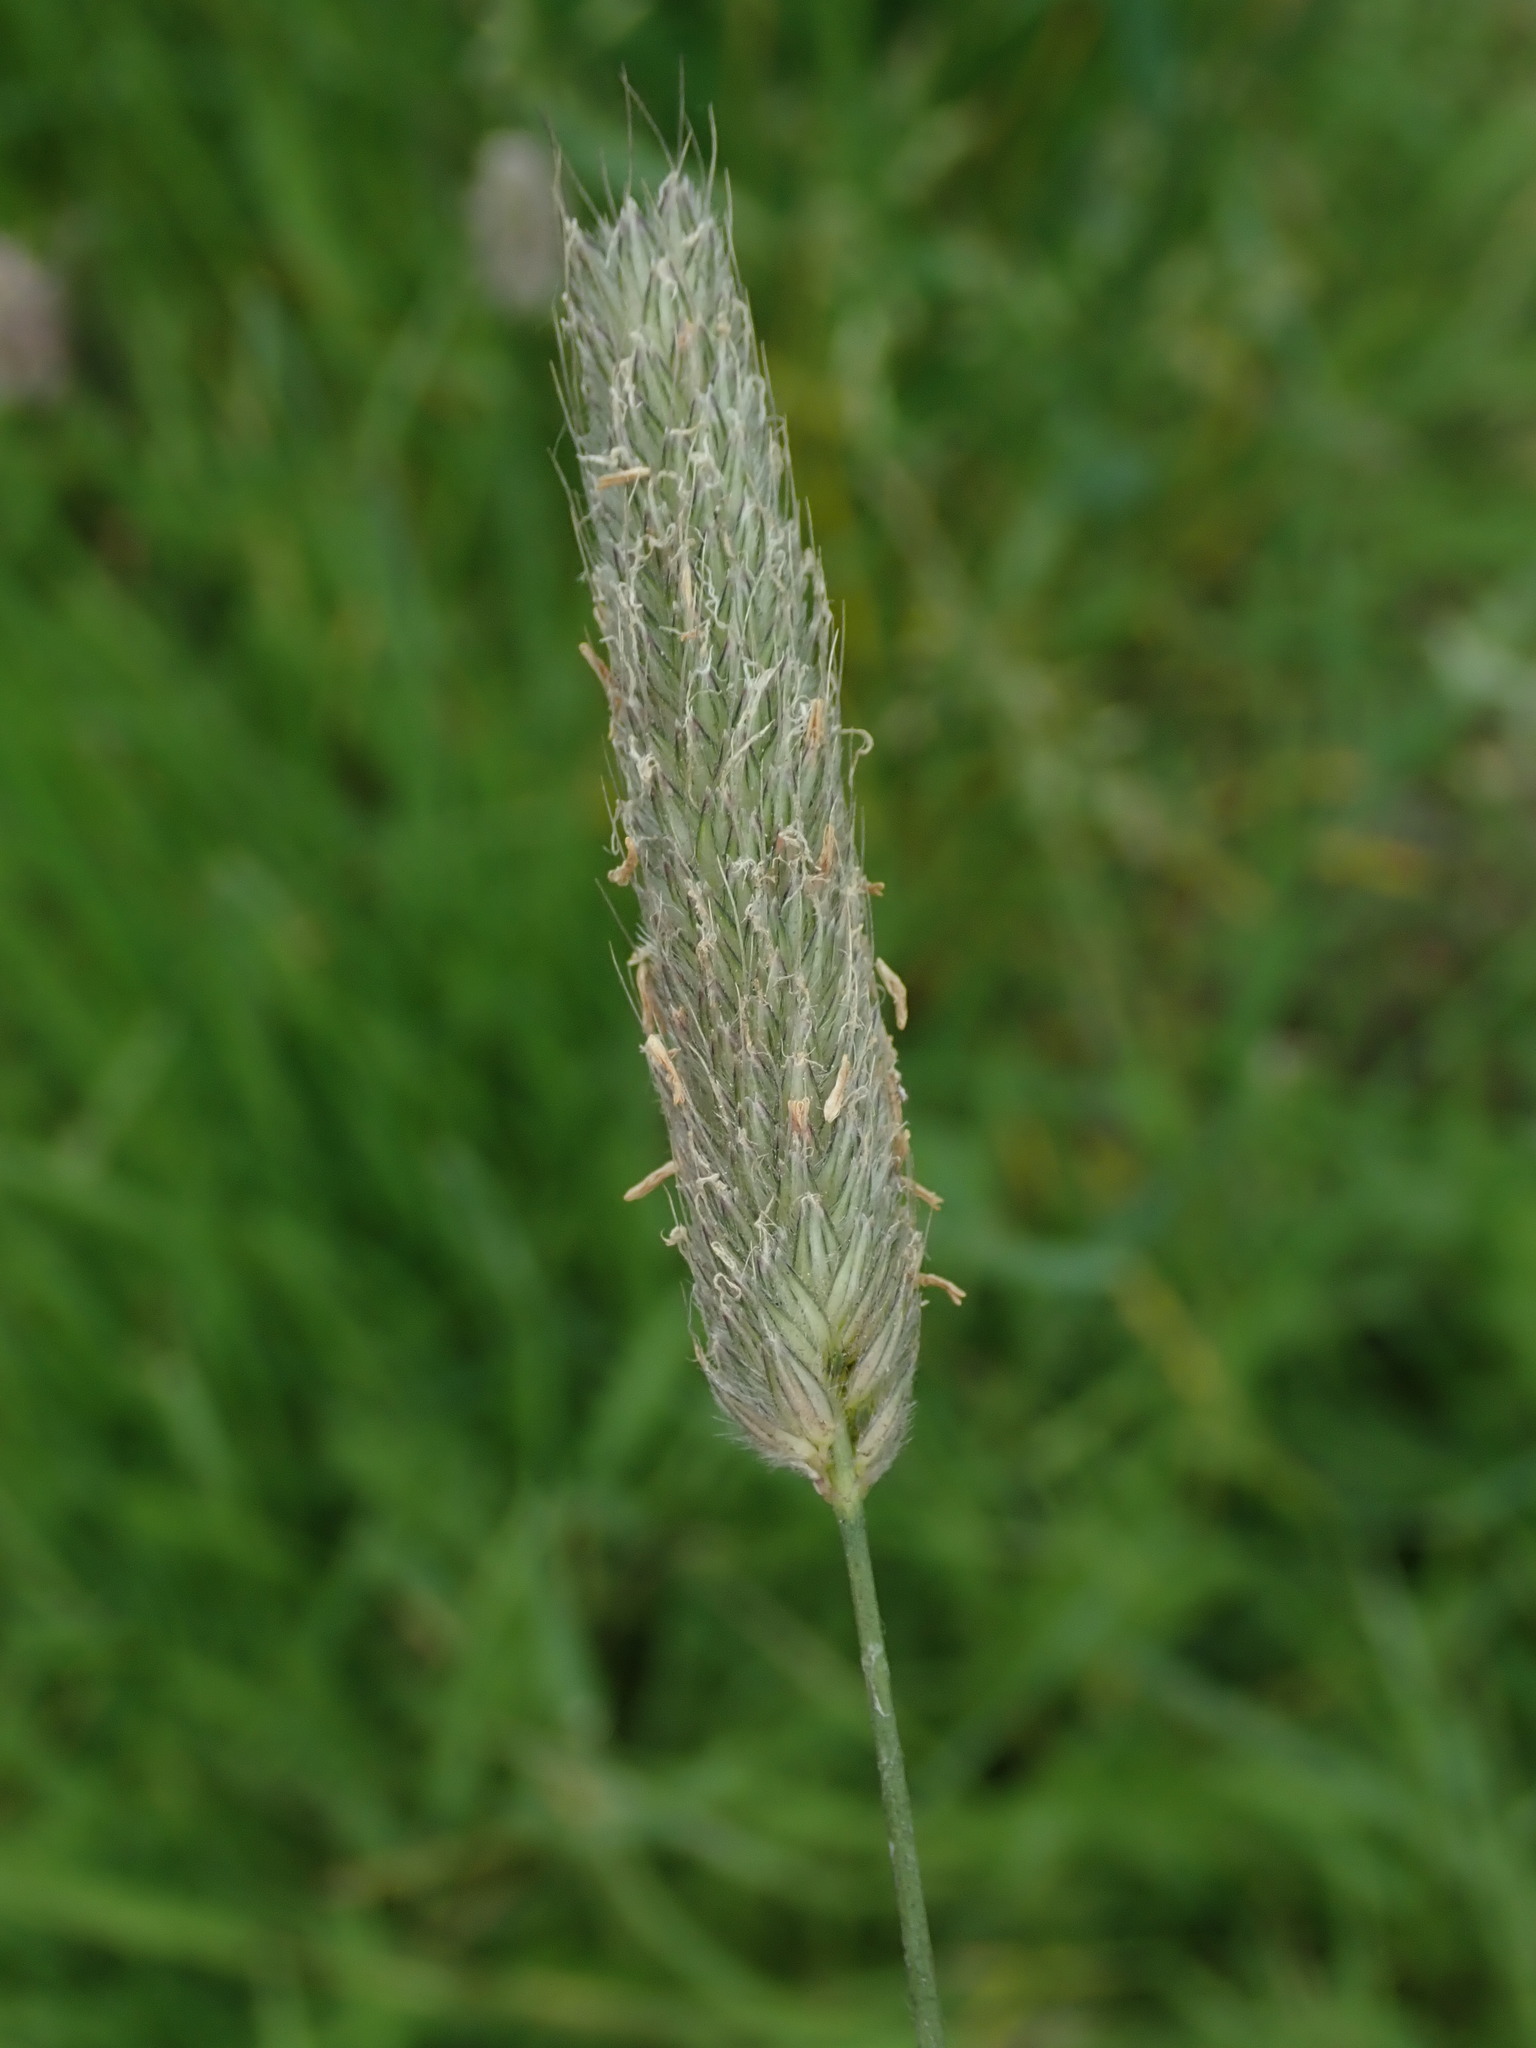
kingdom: Plantae
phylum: Tracheophyta
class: Liliopsida
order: Poales
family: Poaceae
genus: Alopecurus
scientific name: Alopecurus pratensis
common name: Meadow foxtail
